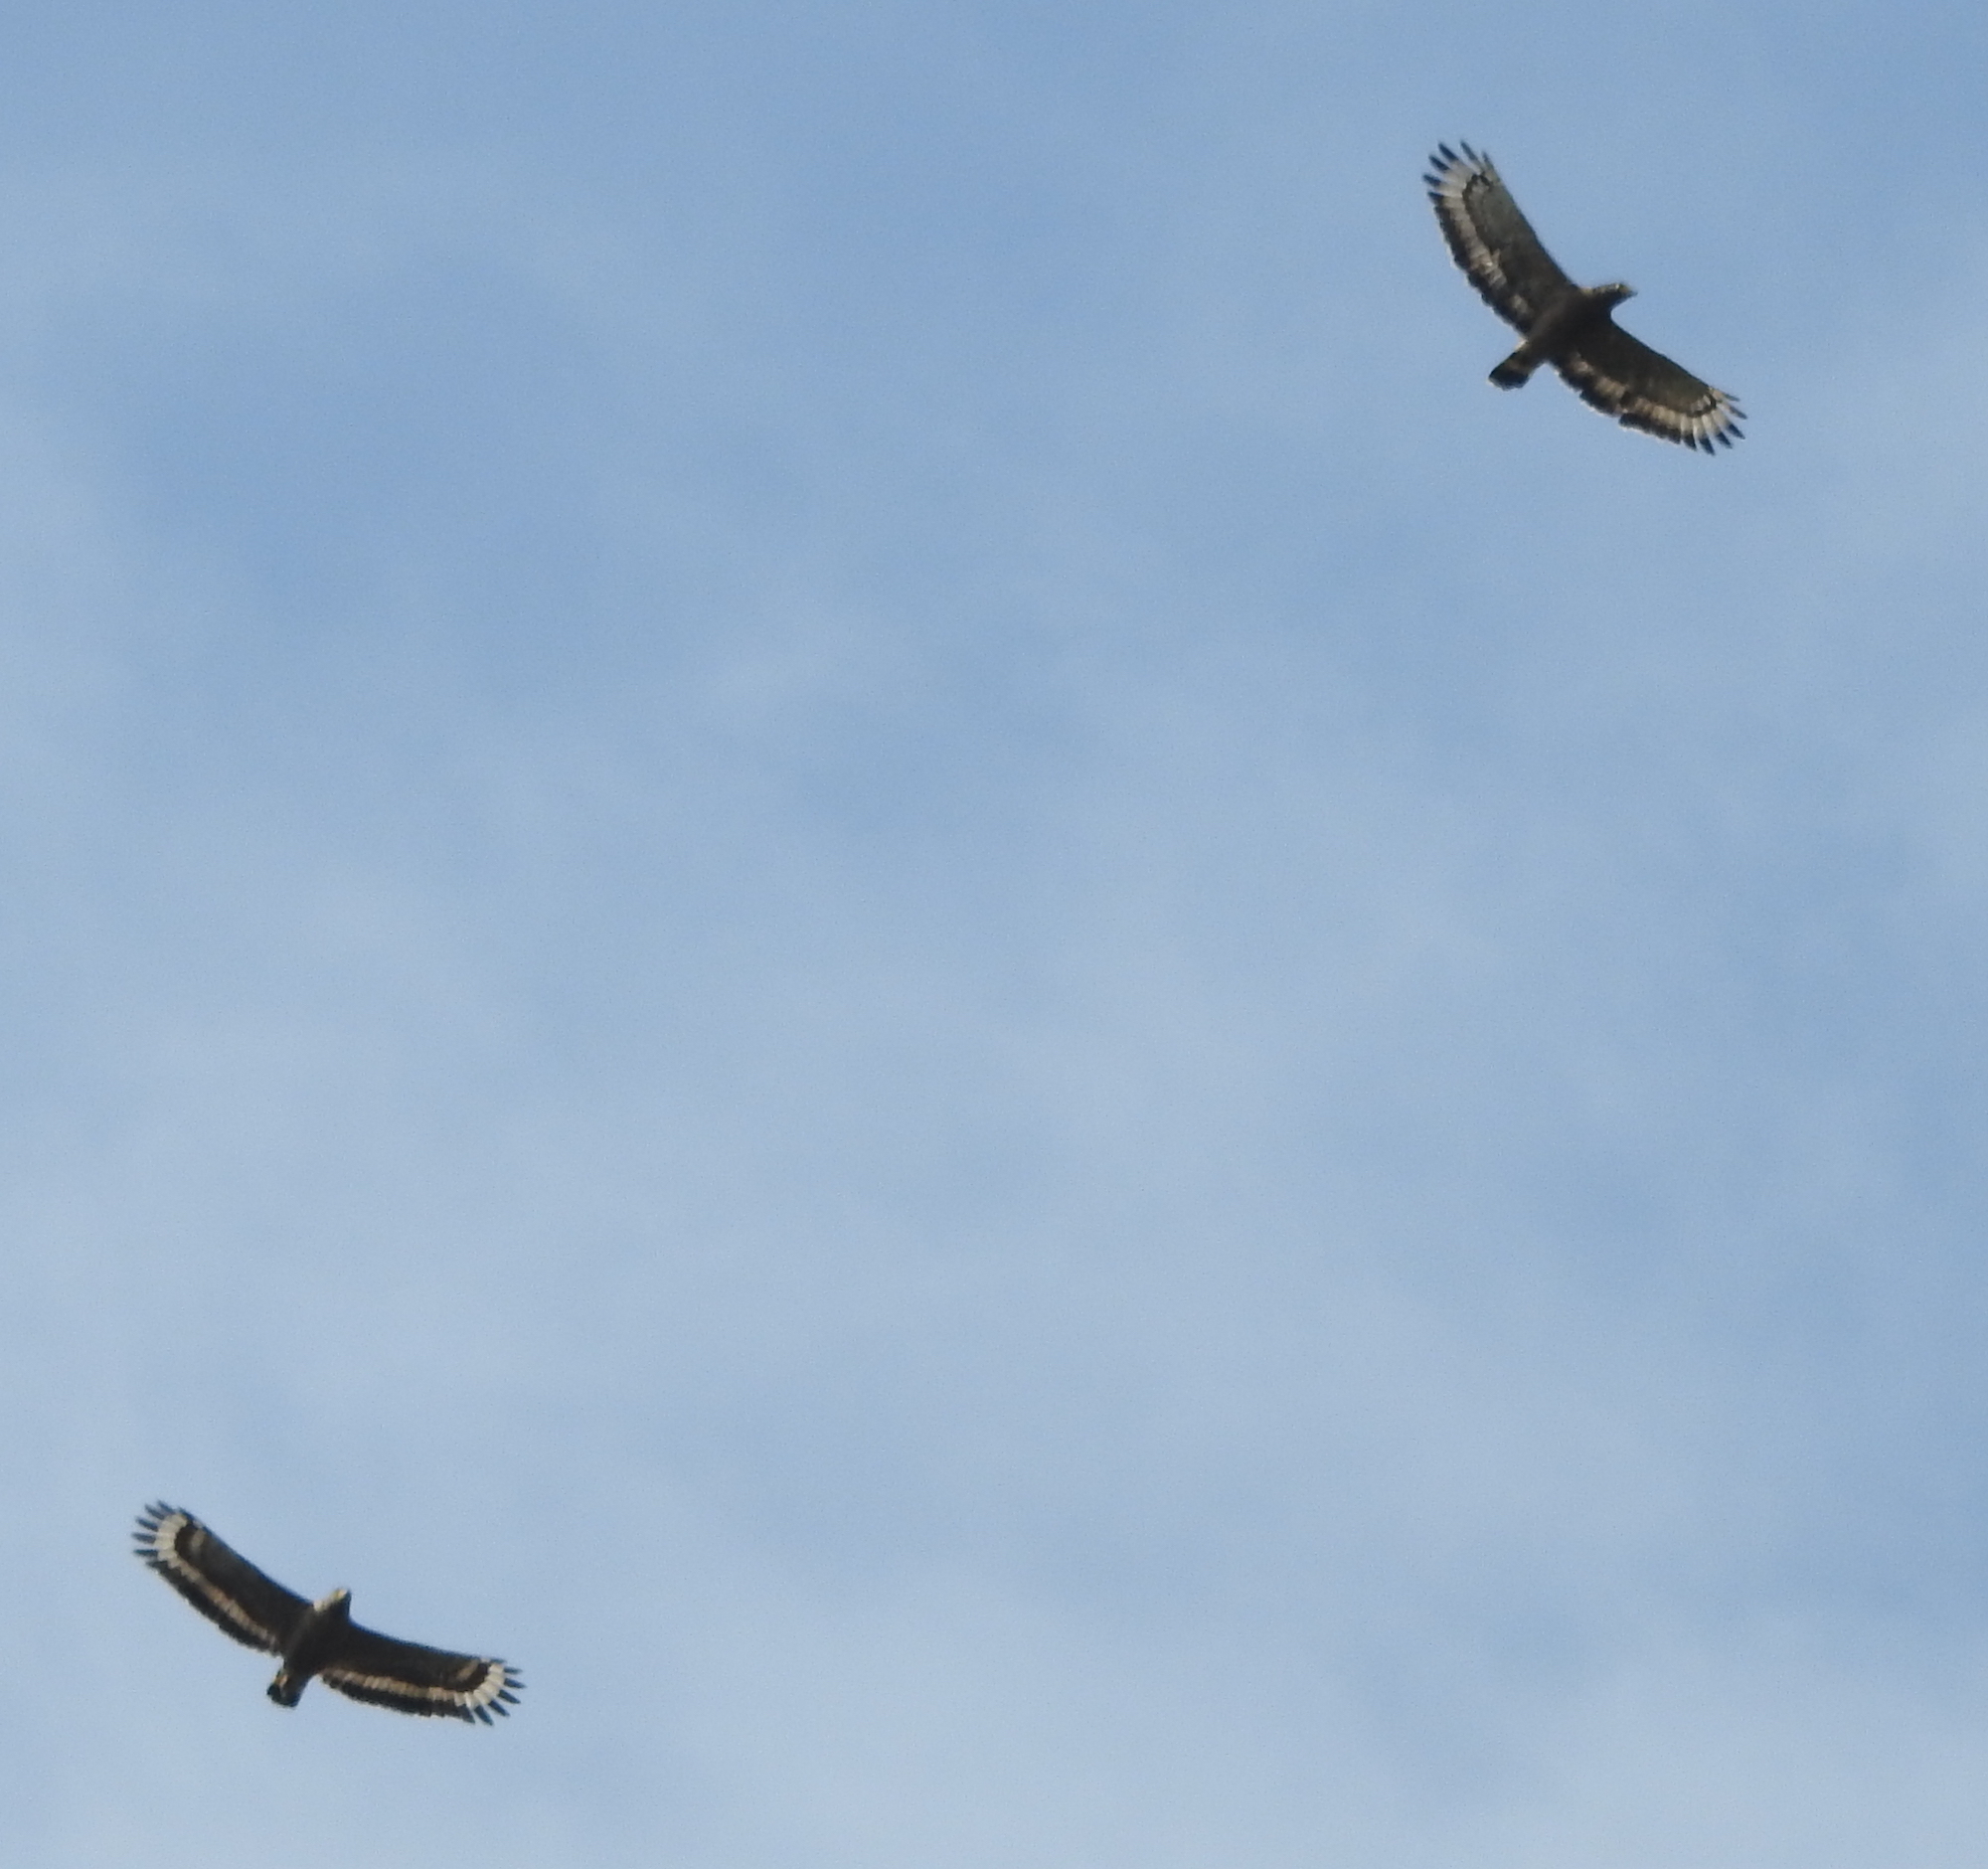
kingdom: Animalia
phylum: Chordata
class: Aves
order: Accipitriformes
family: Accipitridae
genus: Spilornis
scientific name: Spilornis cheela
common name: Crested serpent eagle
